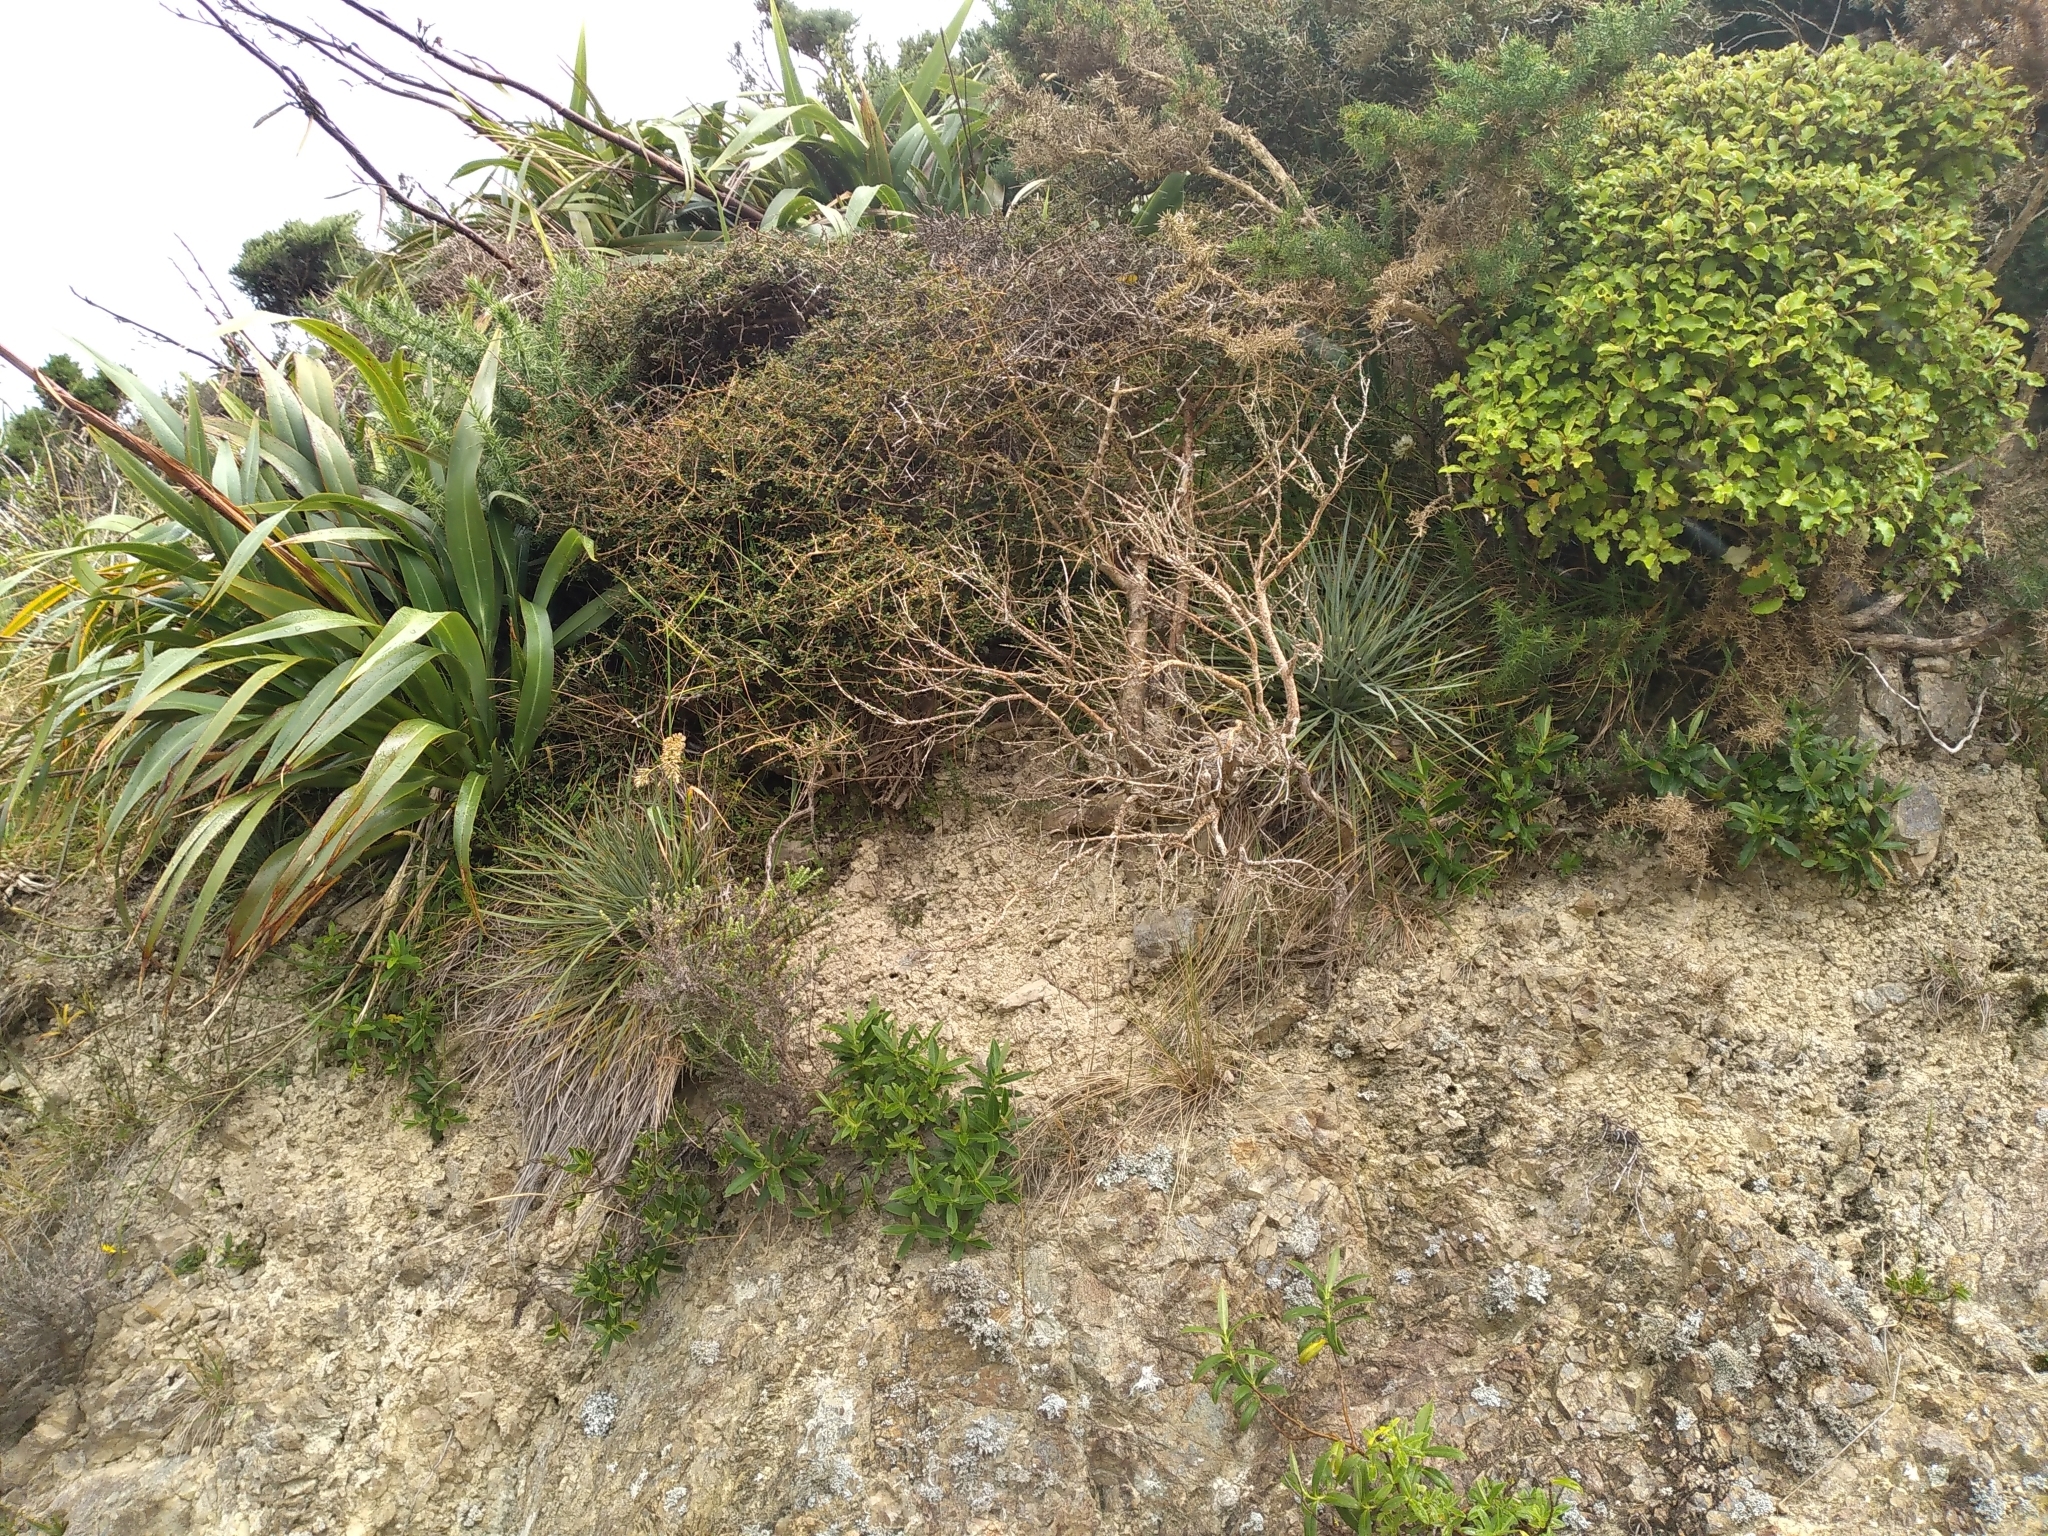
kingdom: Plantae
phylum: Tracheophyta
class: Magnoliopsida
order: Apiales
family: Apiaceae
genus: Aciphylla
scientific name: Aciphylla squarrosa
